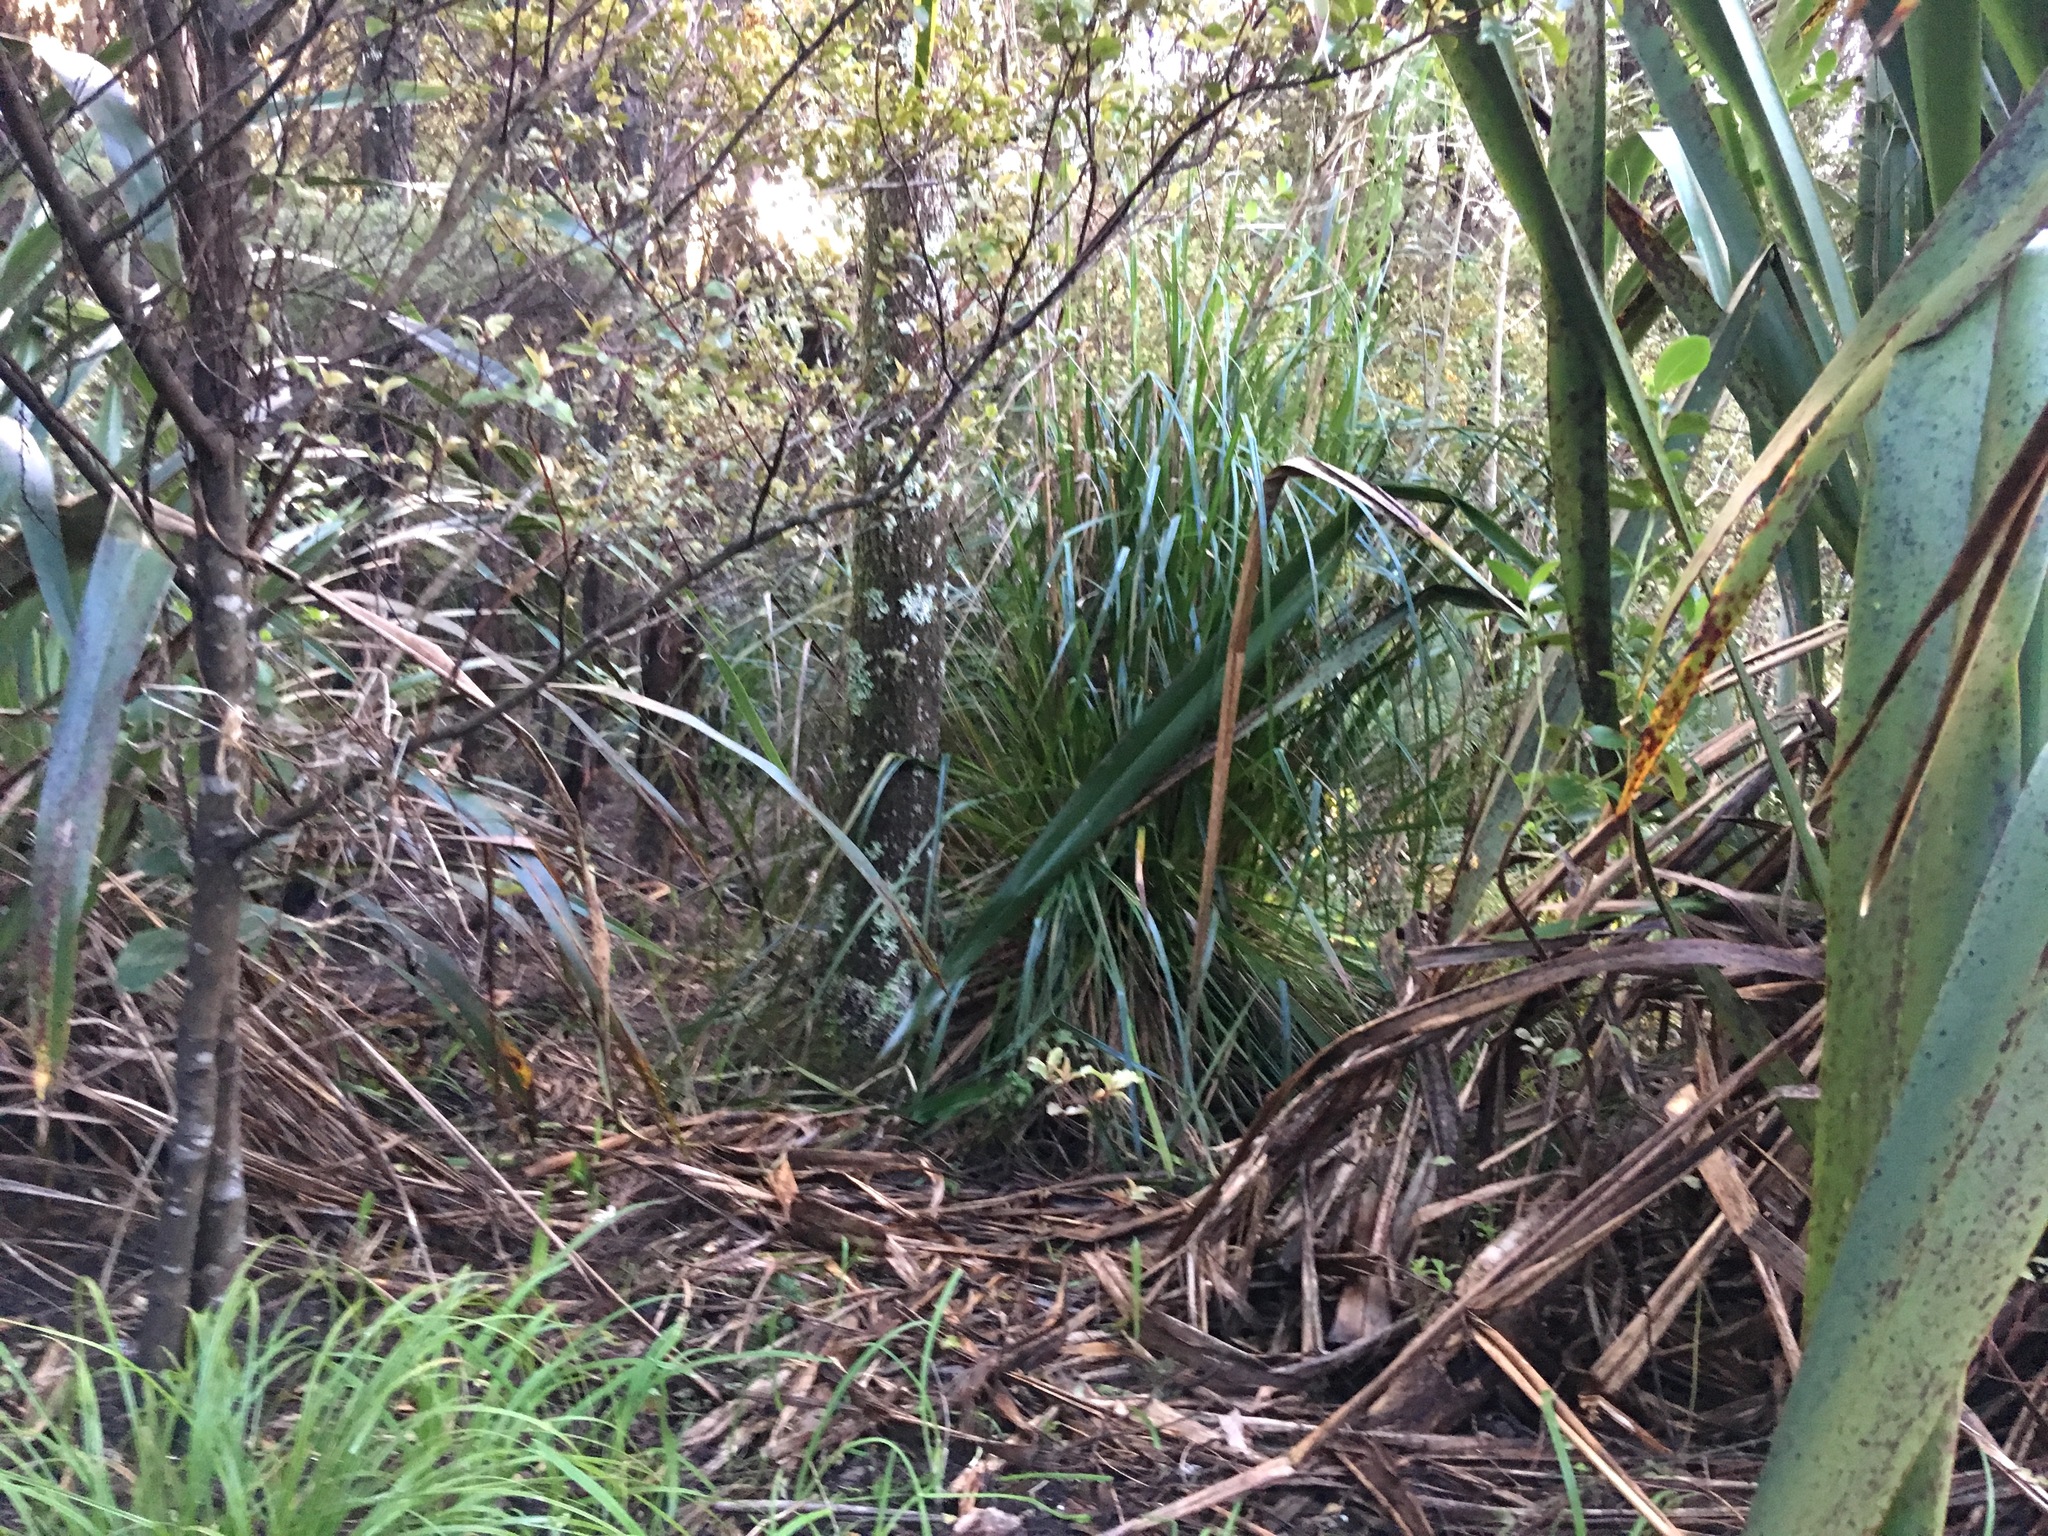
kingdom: Plantae
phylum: Tracheophyta
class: Magnoliopsida
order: Ericales
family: Primulaceae
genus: Myrsine
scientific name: Myrsine australis
